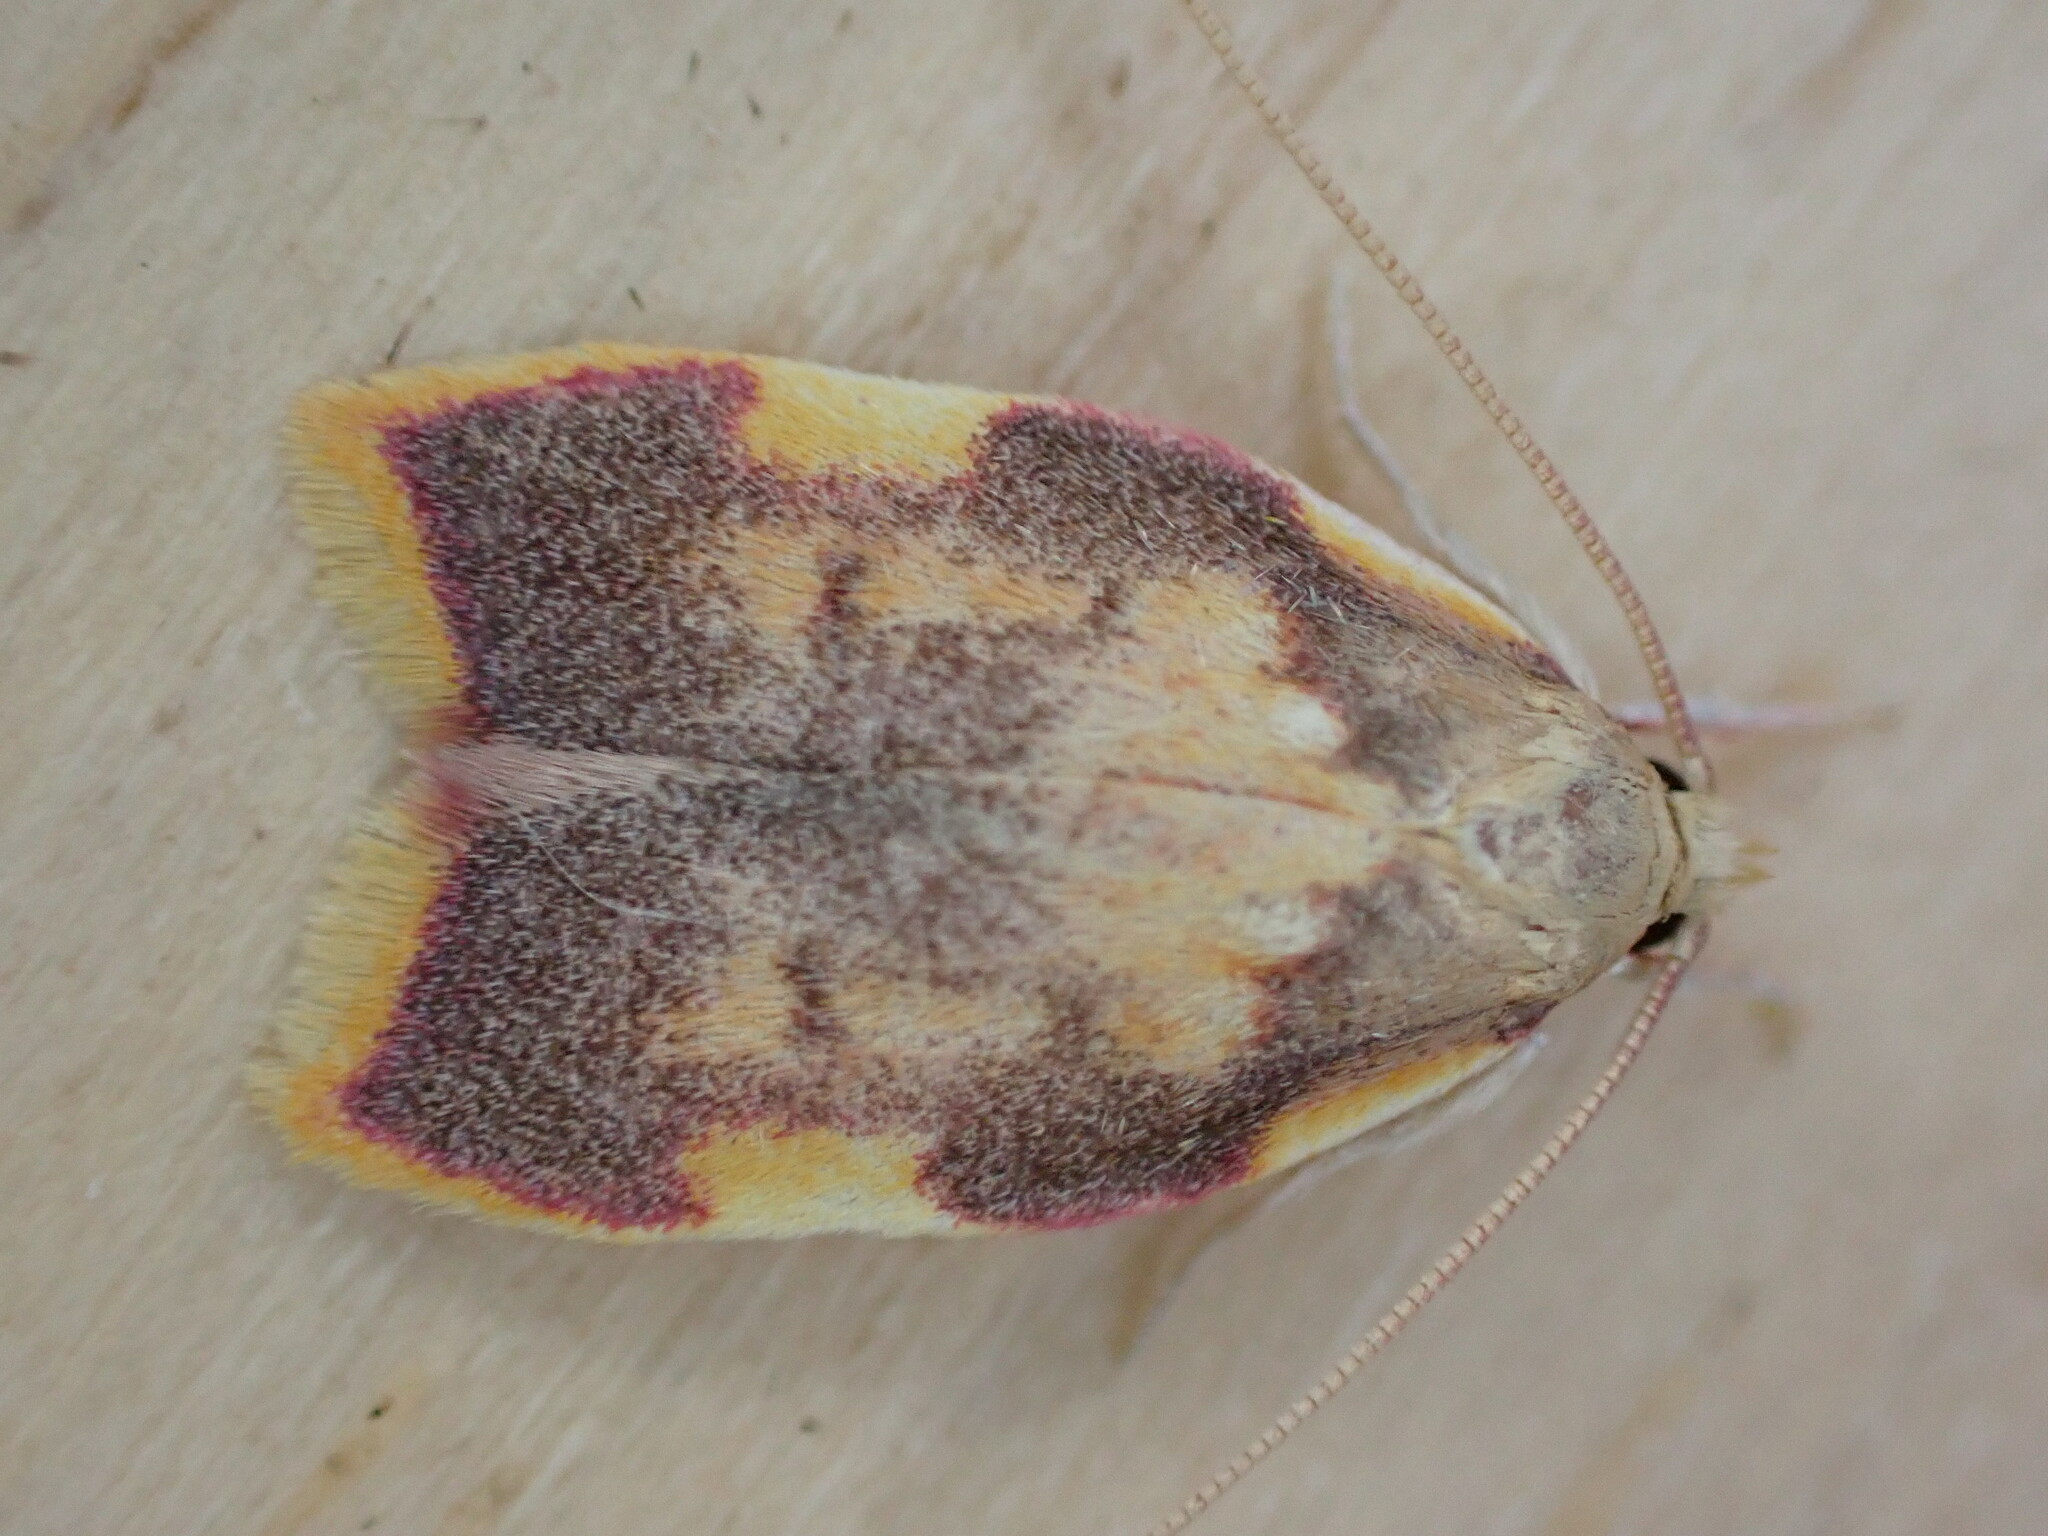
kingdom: Animalia
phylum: Arthropoda
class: Insecta
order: Lepidoptera
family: Peleopodidae
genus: Carcina
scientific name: Carcina quercana
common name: Moth
